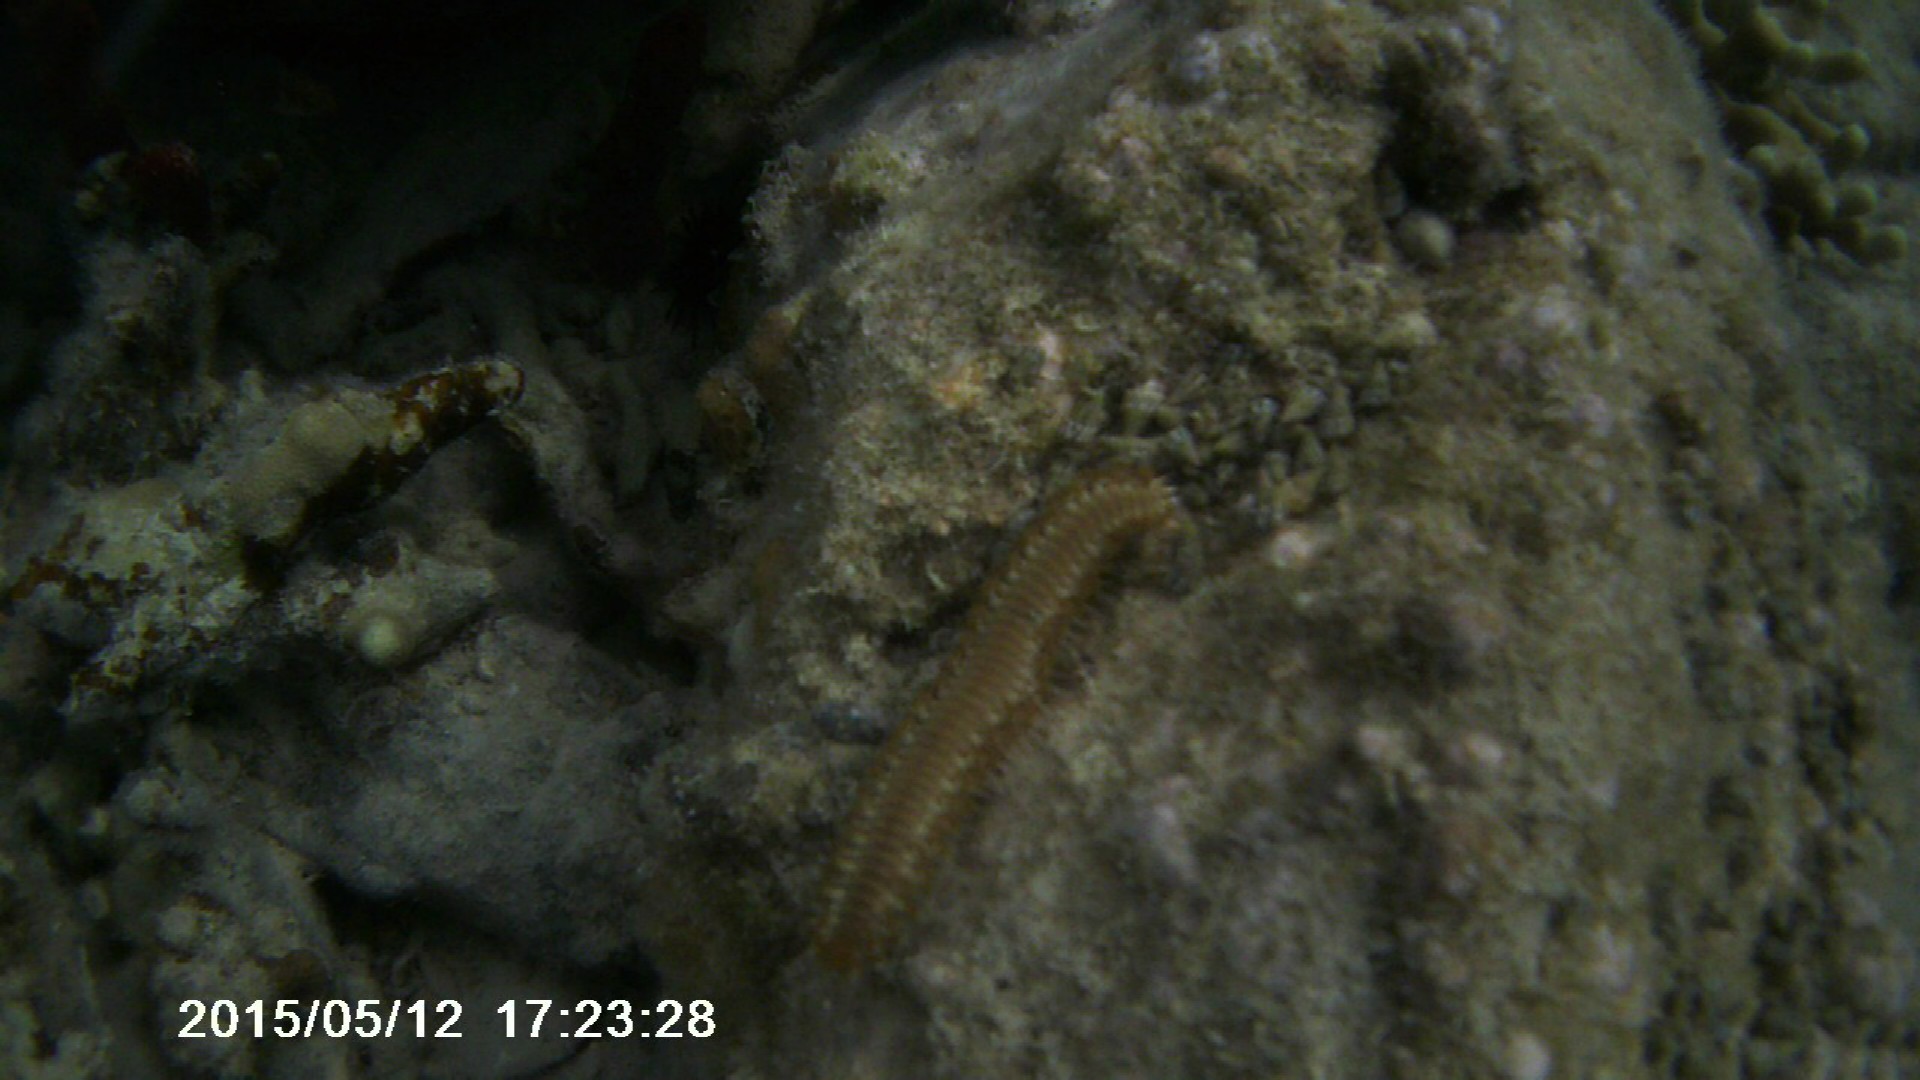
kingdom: Animalia
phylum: Annelida
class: Polychaeta
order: Amphinomida
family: Amphinomidae
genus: Hermodice
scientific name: Hermodice carunculata
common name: Bearded fireworm
